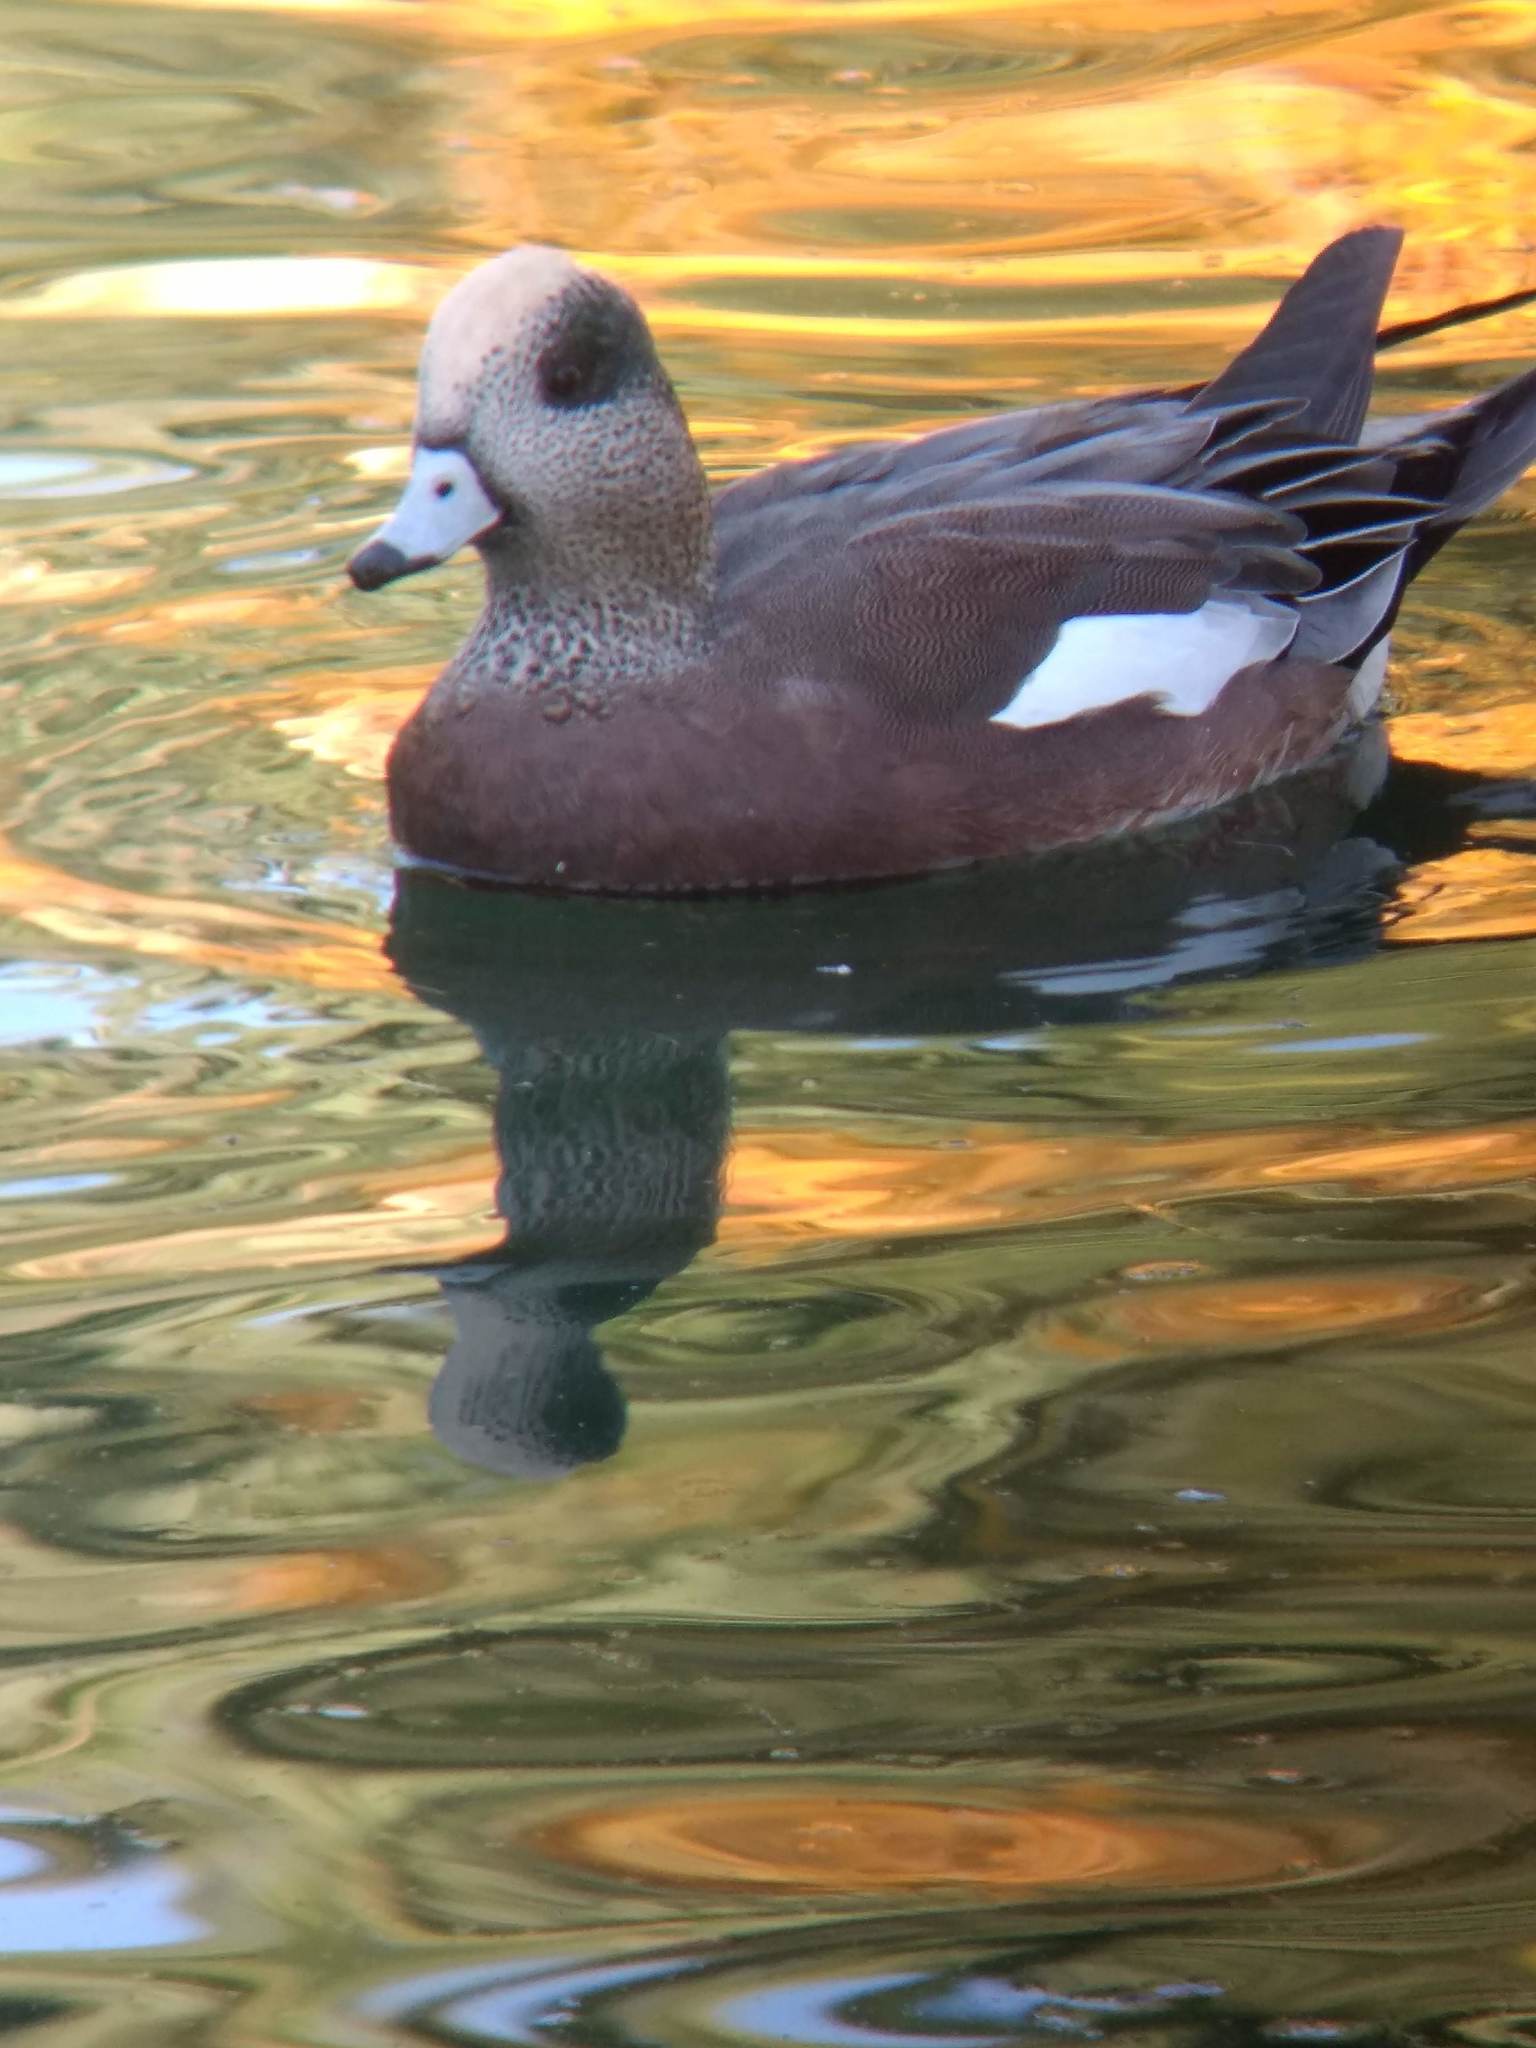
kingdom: Animalia
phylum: Chordata
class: Aves
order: Anseriformes
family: Anatidae
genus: Mareca
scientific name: Mareca americana
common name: American wigeon
